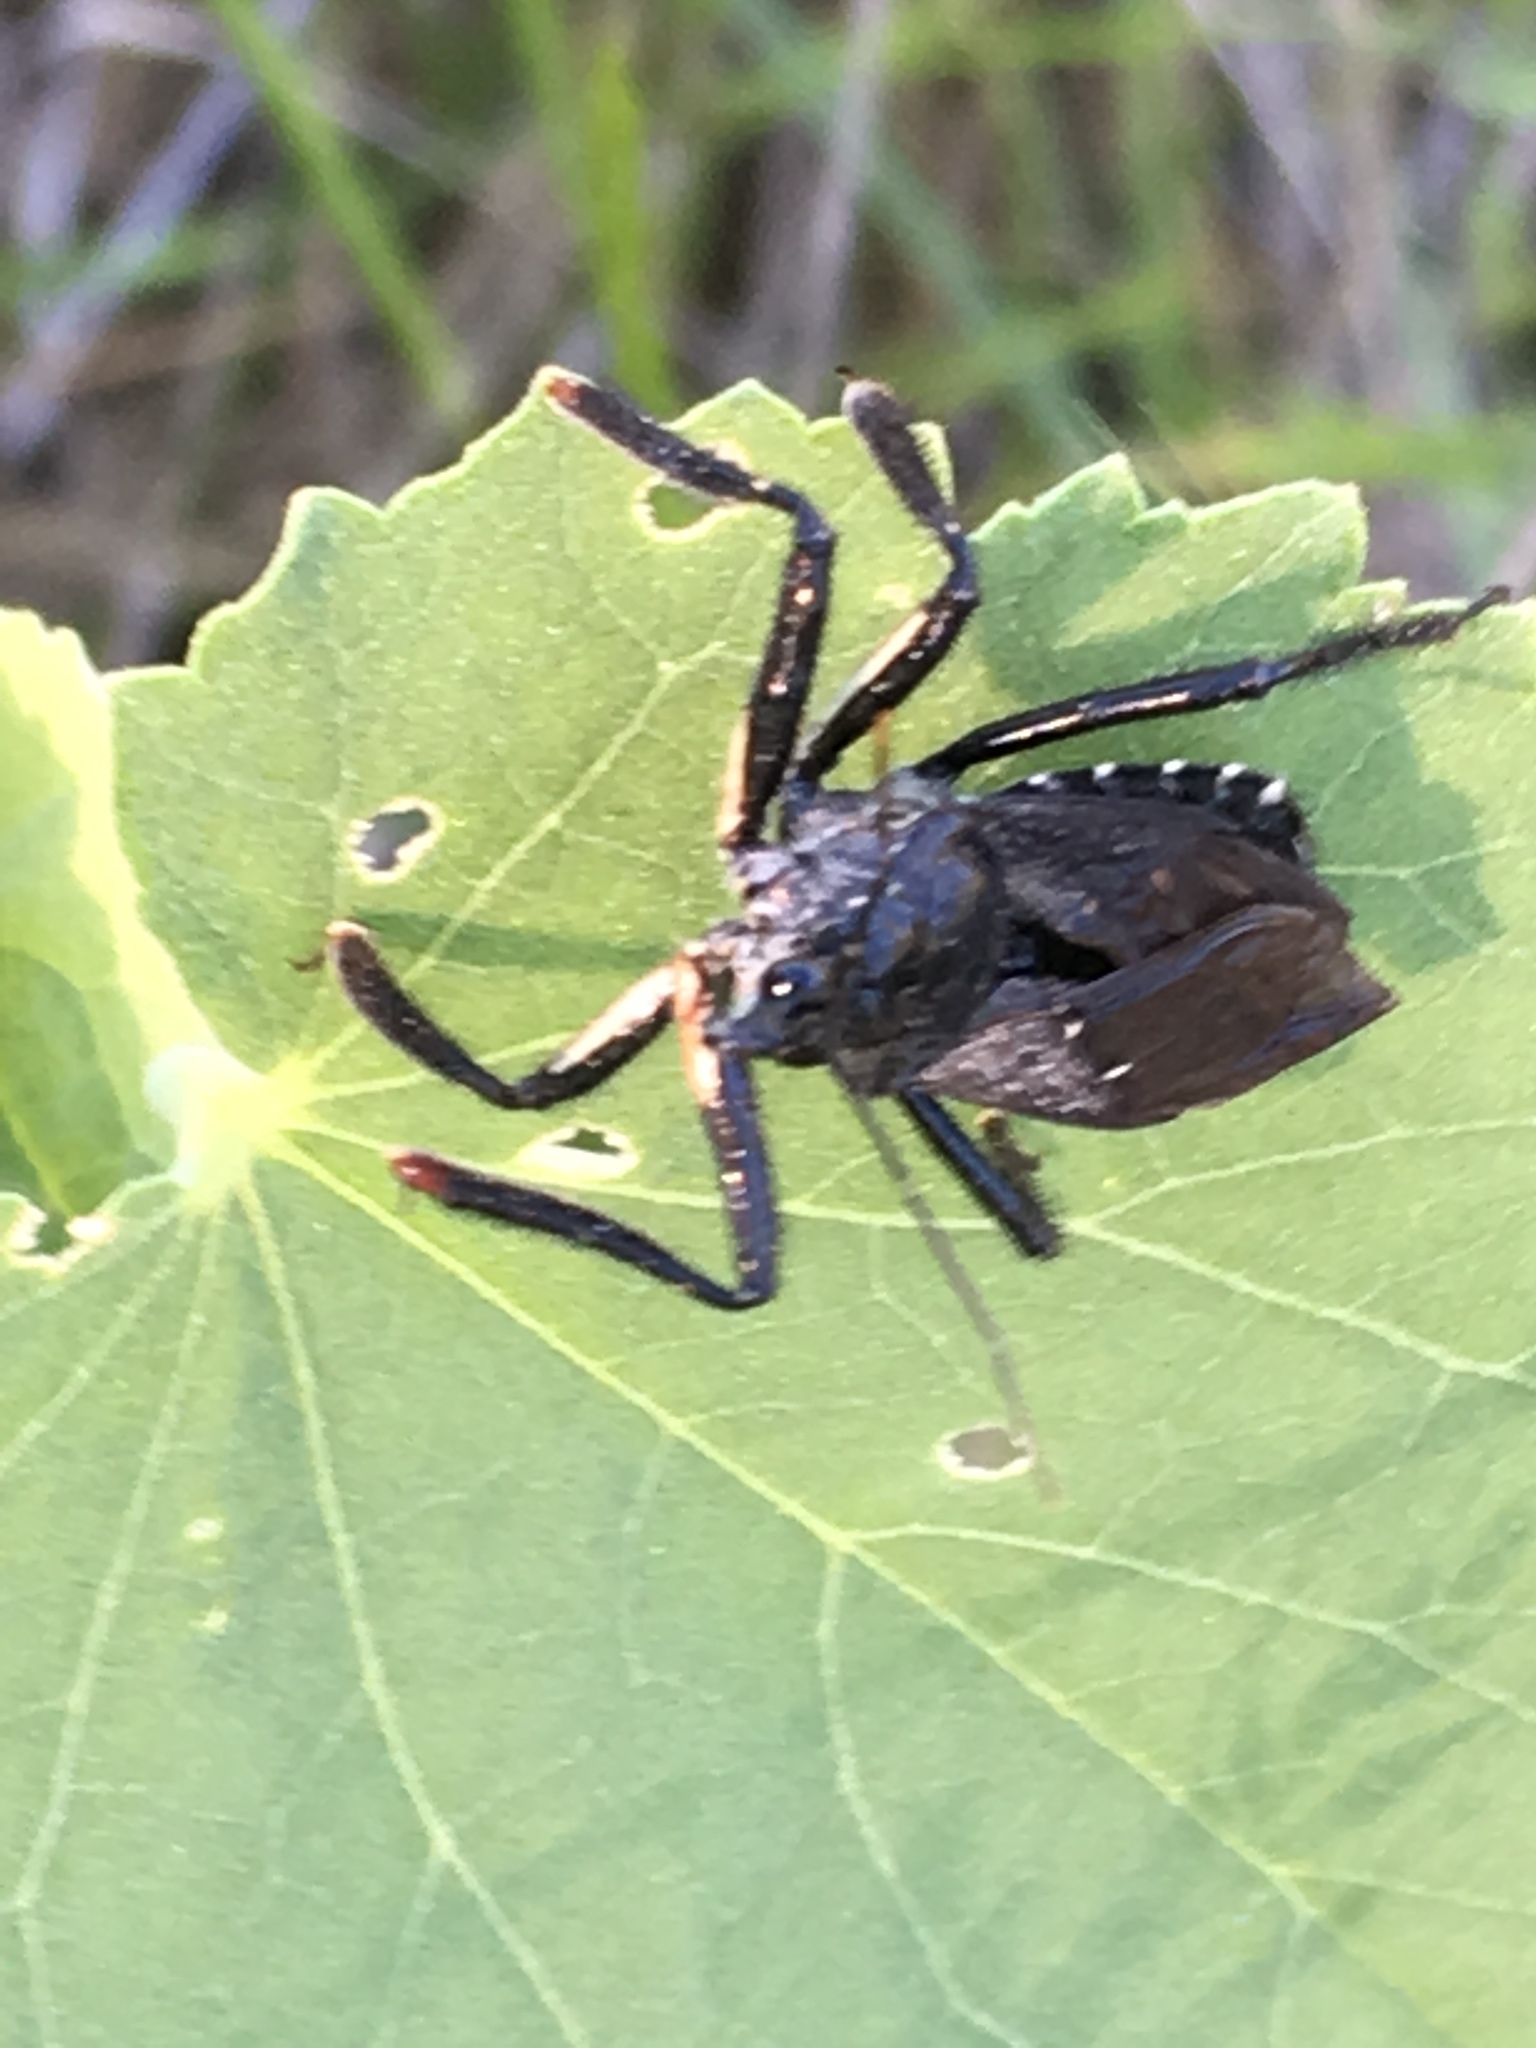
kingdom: Animalia
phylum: Arthropoda
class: Insecta
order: Hemiptera
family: Reduviidae
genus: Apiomerus
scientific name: Apiomerus longispinis
